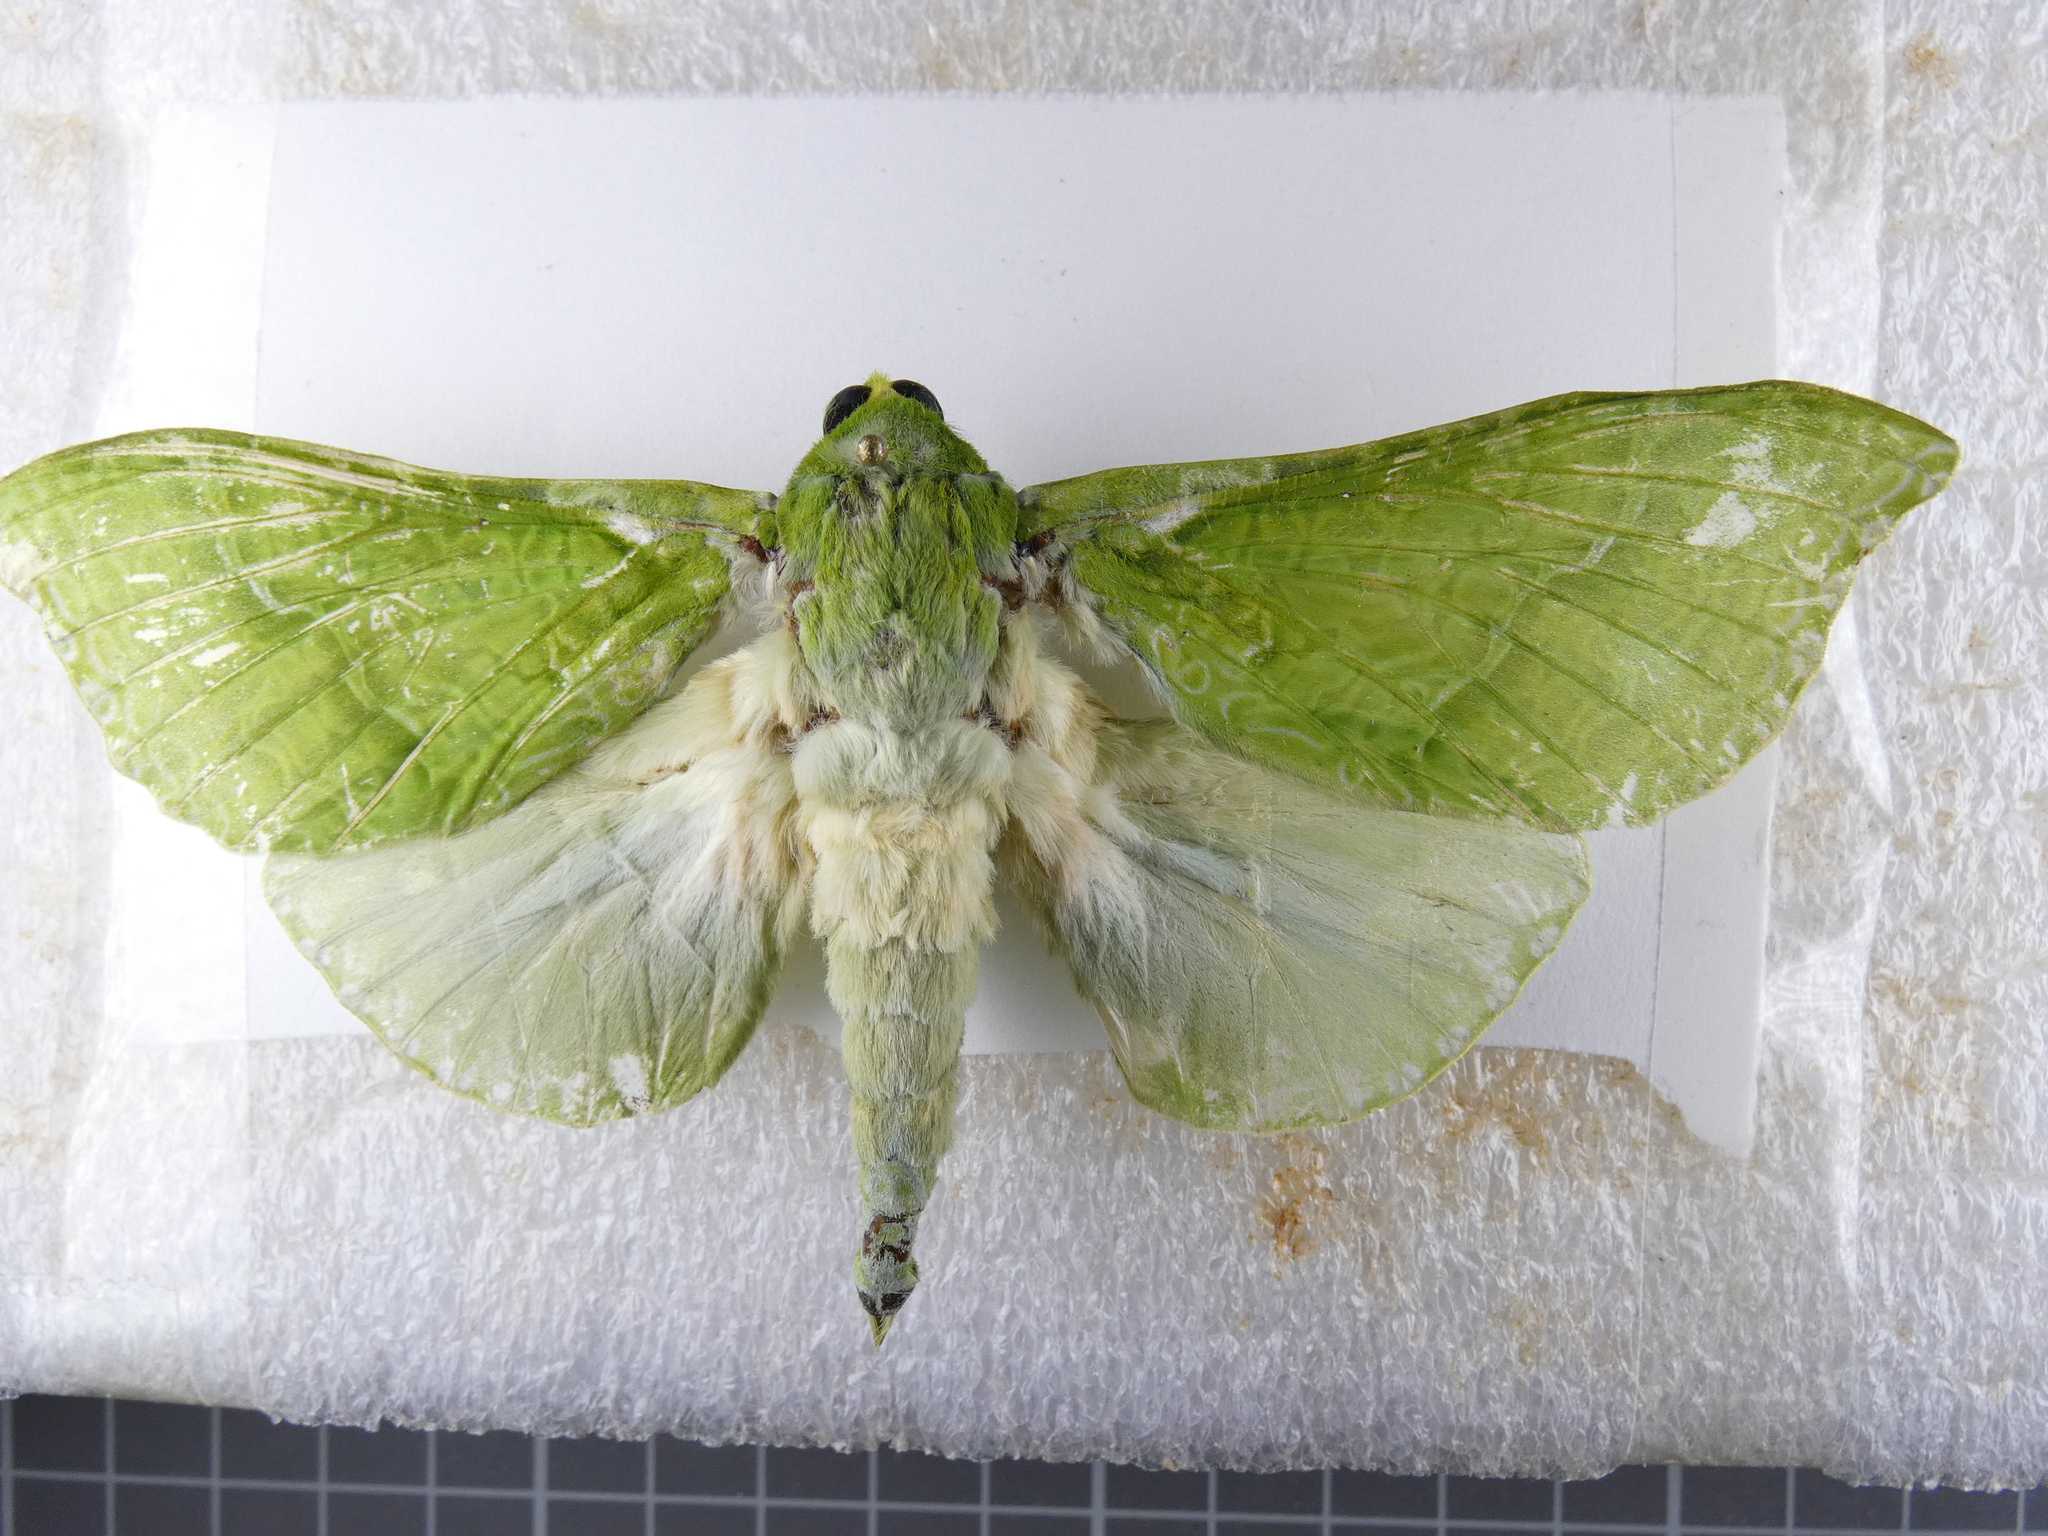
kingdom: Animalia
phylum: Arthropoda
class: Insecta
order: Lepidoptera
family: Hepialidae
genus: Aenetus
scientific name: Aenetus virescens
